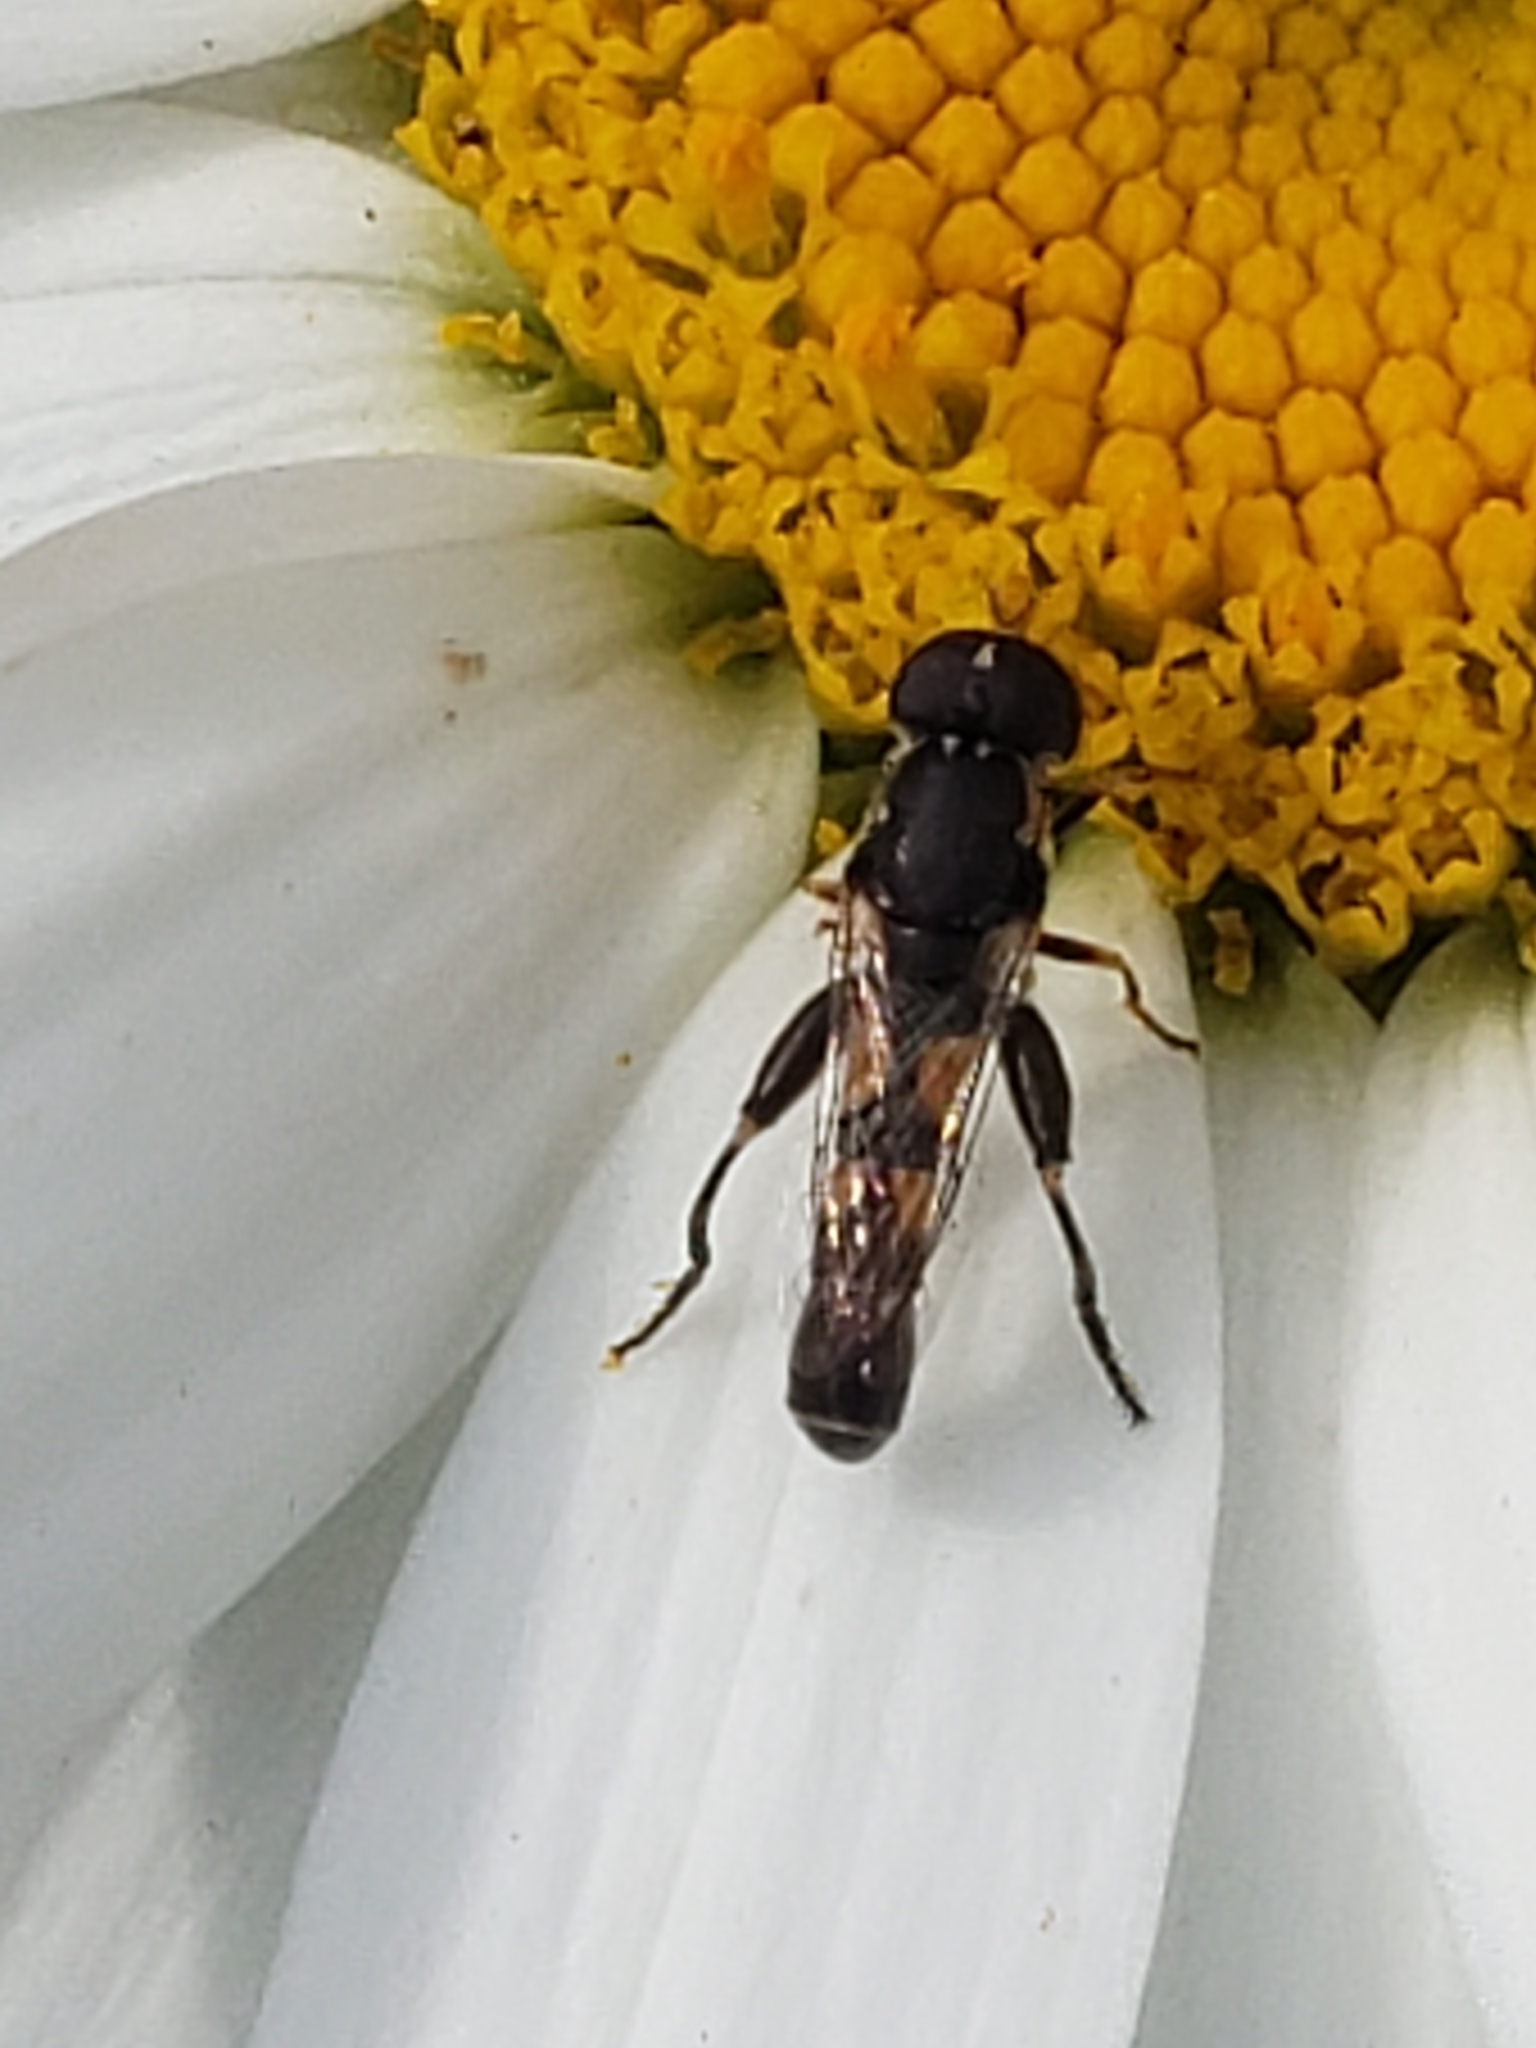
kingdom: Animalia
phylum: Arthropoda
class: Insecta
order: Diptera
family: Syrphidae
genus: Syritta
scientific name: Syritta pipiens
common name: Hover fly
